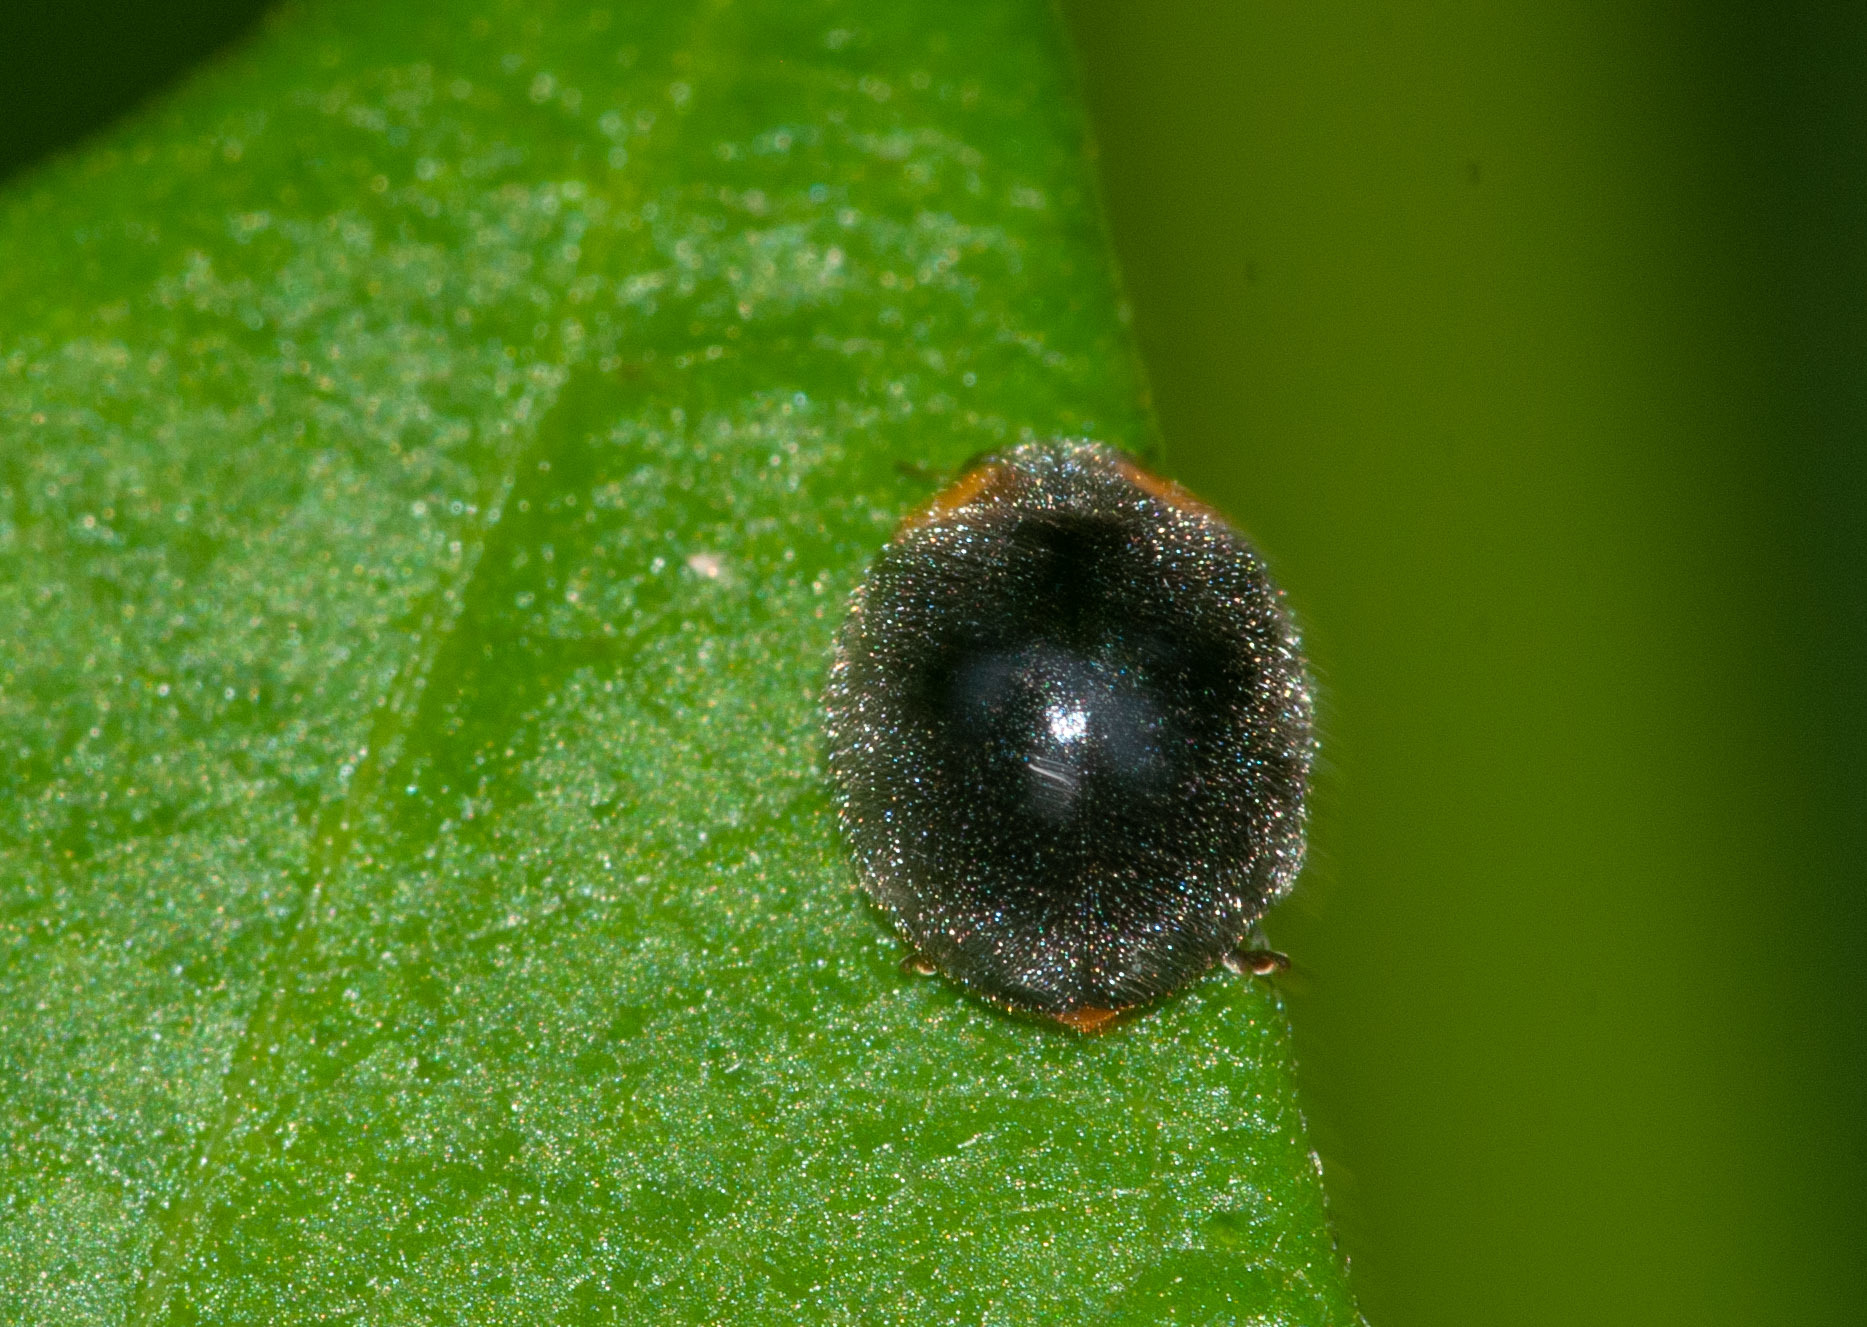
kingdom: Animalia
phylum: Arthropoda
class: Insecta
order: Coleoptera
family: Coccinellidae
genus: Scymnodes
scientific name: Scymnodes lividigaster
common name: Yellowshouldered lady beetle
